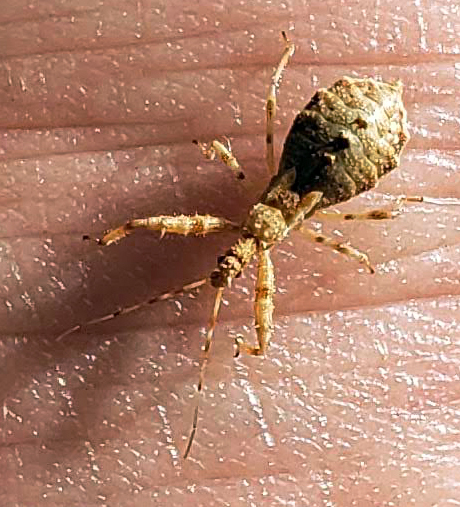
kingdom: Animalia
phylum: Arthropoda
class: Insecta
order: Hemiptera
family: Reduviidae
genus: Acholla
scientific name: Acholla
